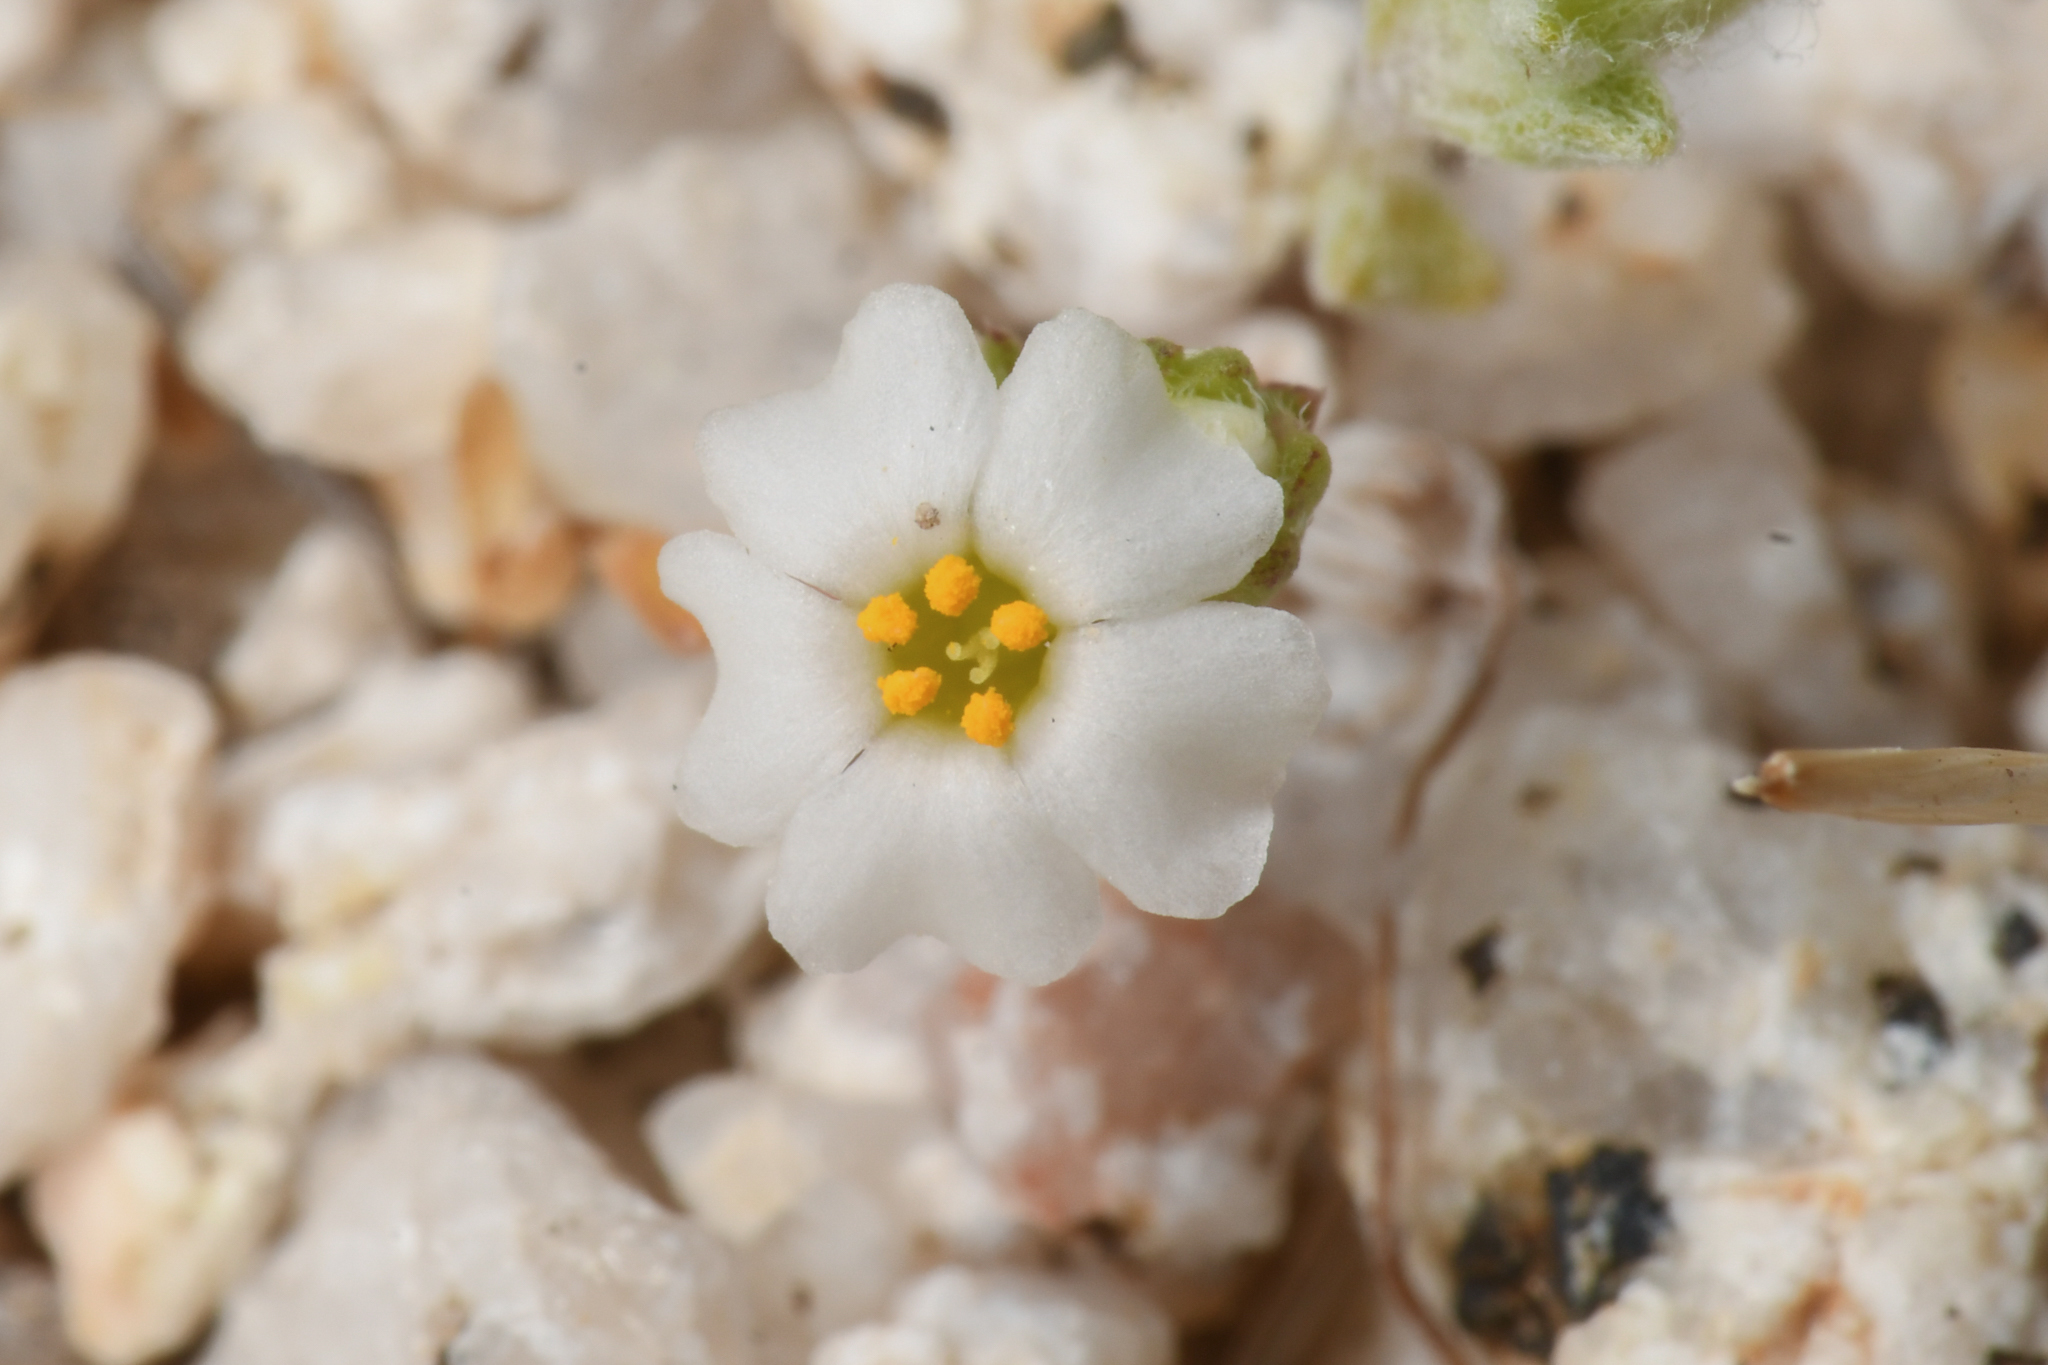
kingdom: Plantae
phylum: Tracheophyta
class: Magnoliopsida
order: Ericales
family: Polemoniaceae
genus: Maculigilia
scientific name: Maculigilia maculata
